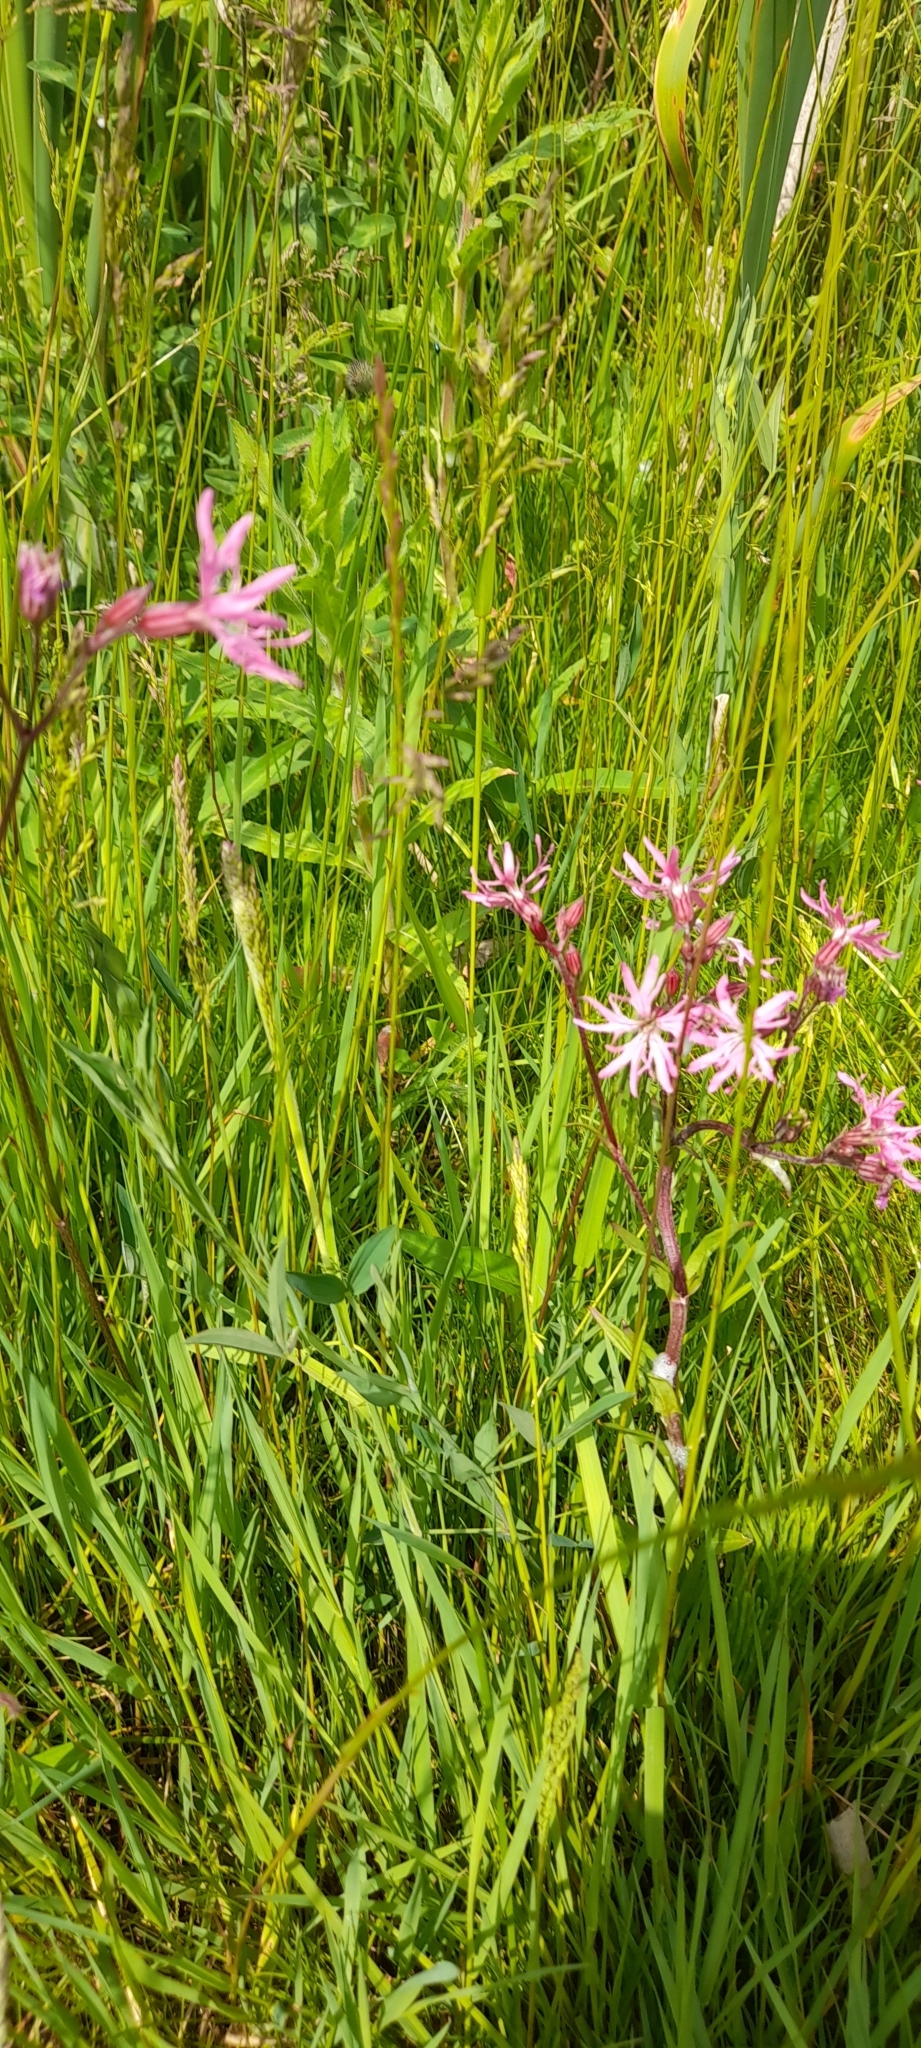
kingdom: Plantae
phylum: Tracheophyta
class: Magnoliopsida
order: Caryophyllales
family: Caryophyllaceae
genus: Silene
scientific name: Silene flos-cuculi
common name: Ragged-robin
